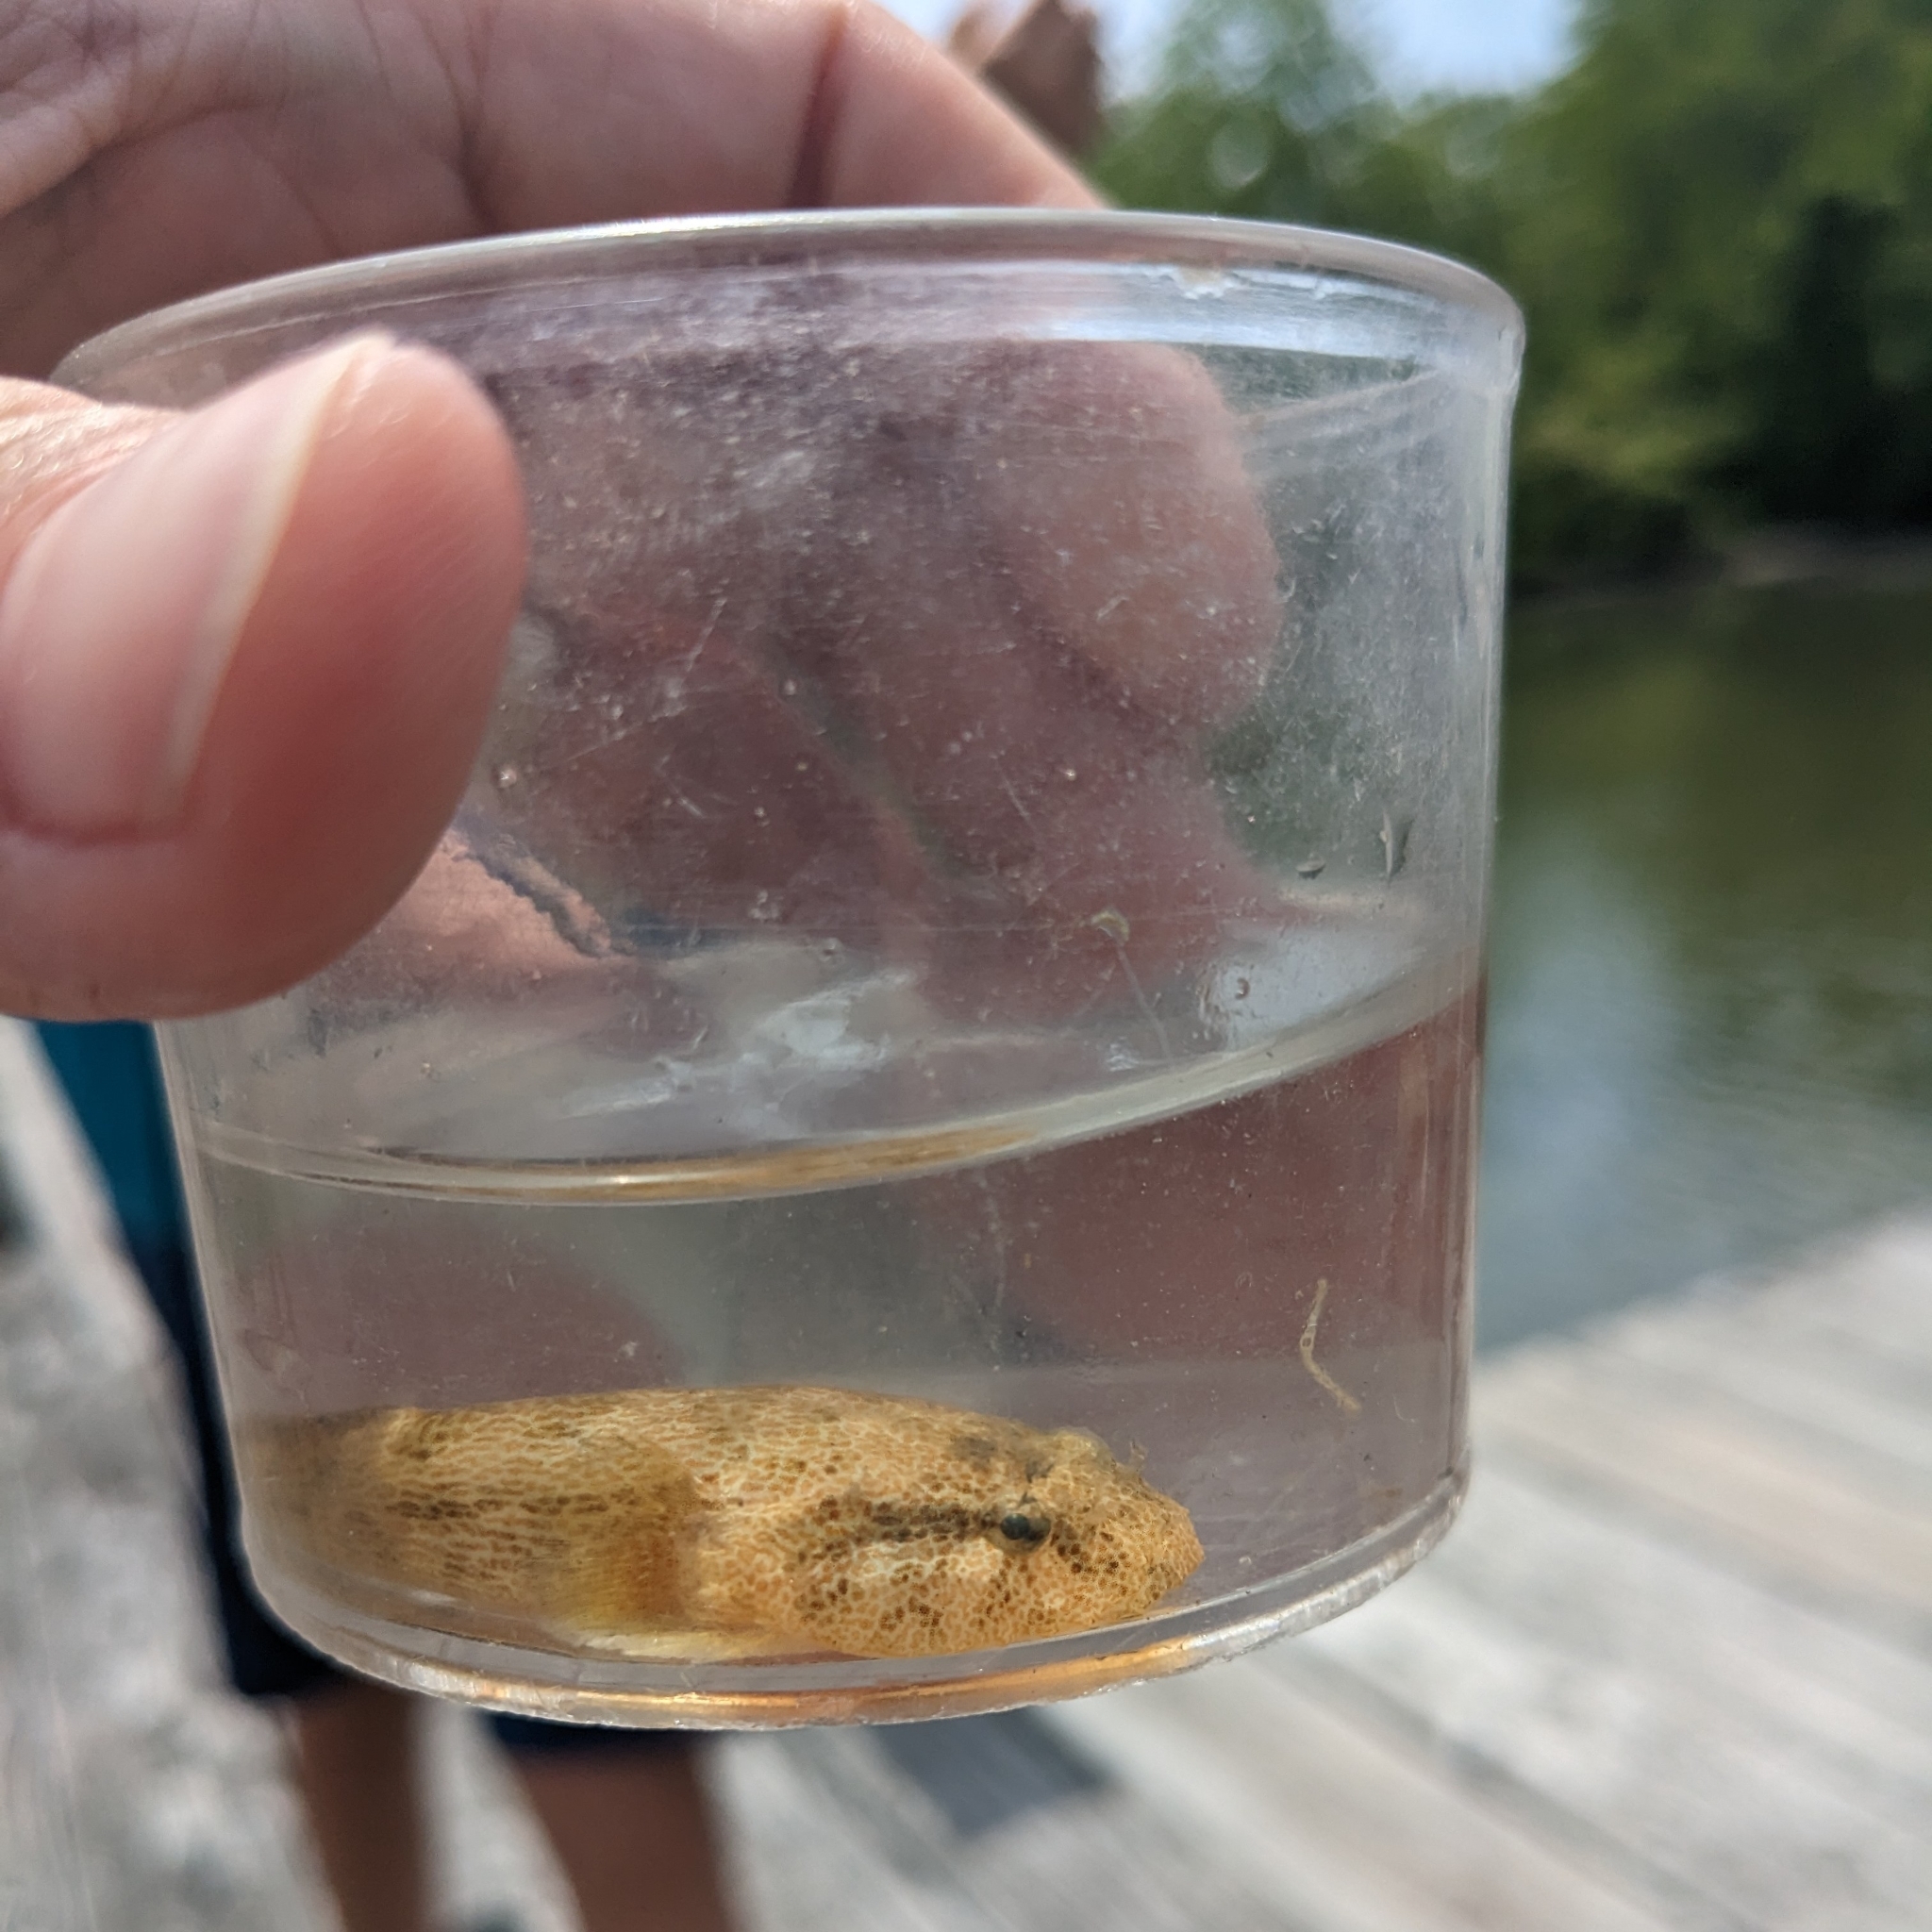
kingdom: Animalia
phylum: Chordata
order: Gobiesociformes
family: Gobiesocidae
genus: Gobiesox
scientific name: Gobiesox strumosus
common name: Skilletfish
